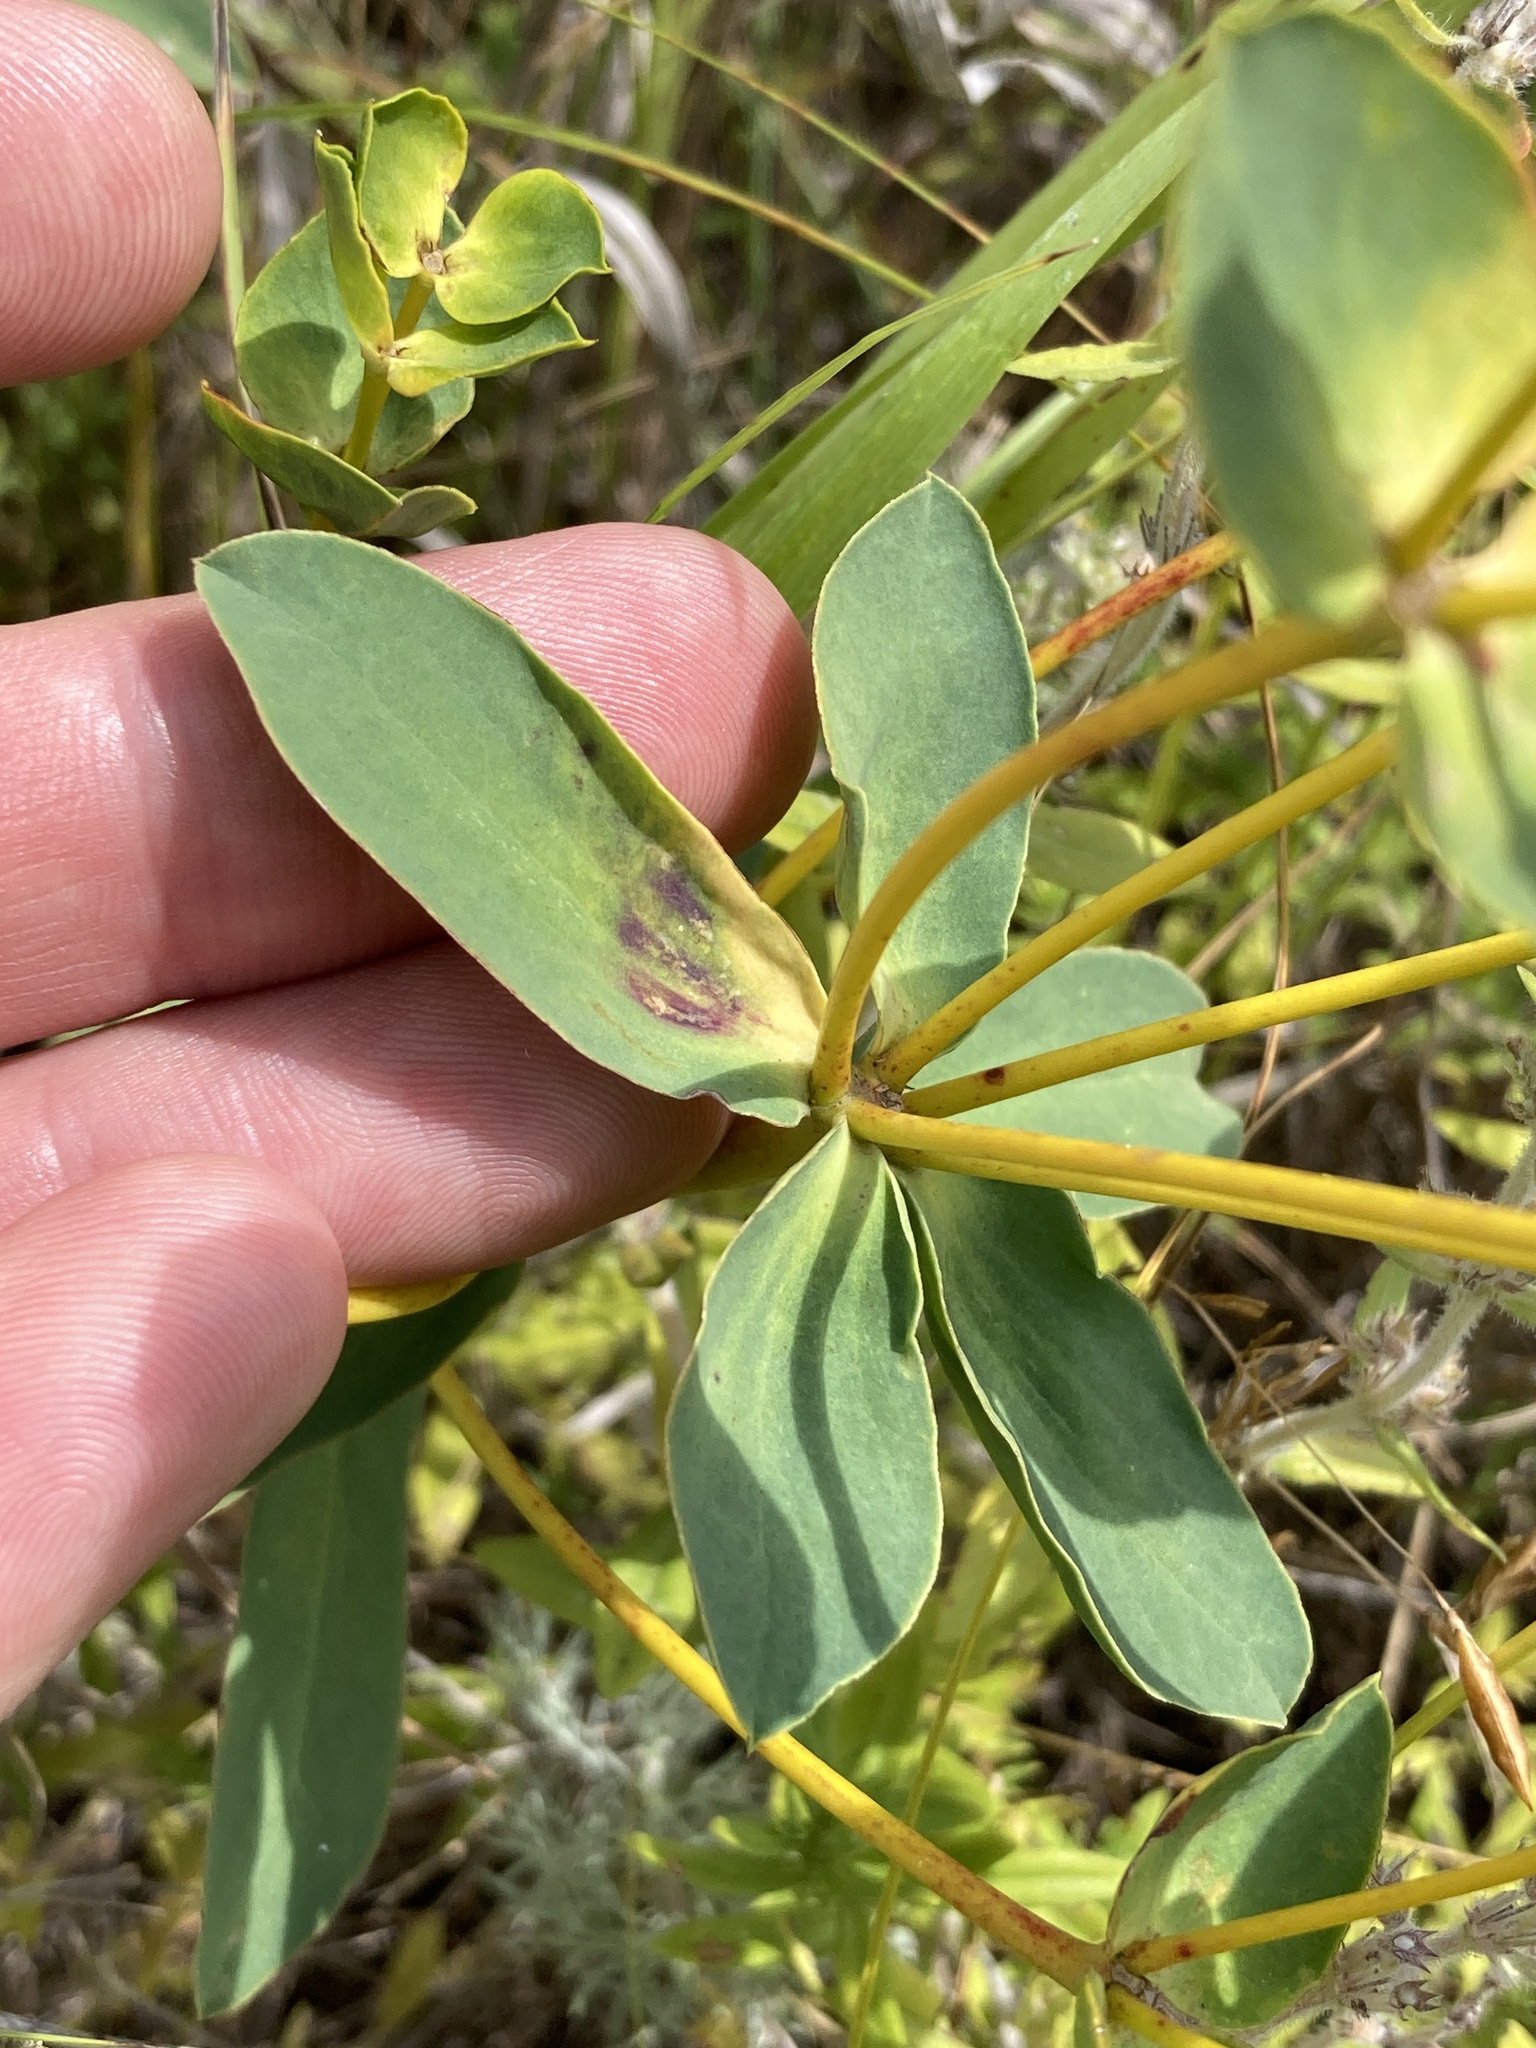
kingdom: Plantae
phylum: Tracheophyta
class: Magnoliopsida
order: Malpighiales
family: Euphorbiaceae
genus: Euphorbia
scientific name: Euphorbia stepposa
